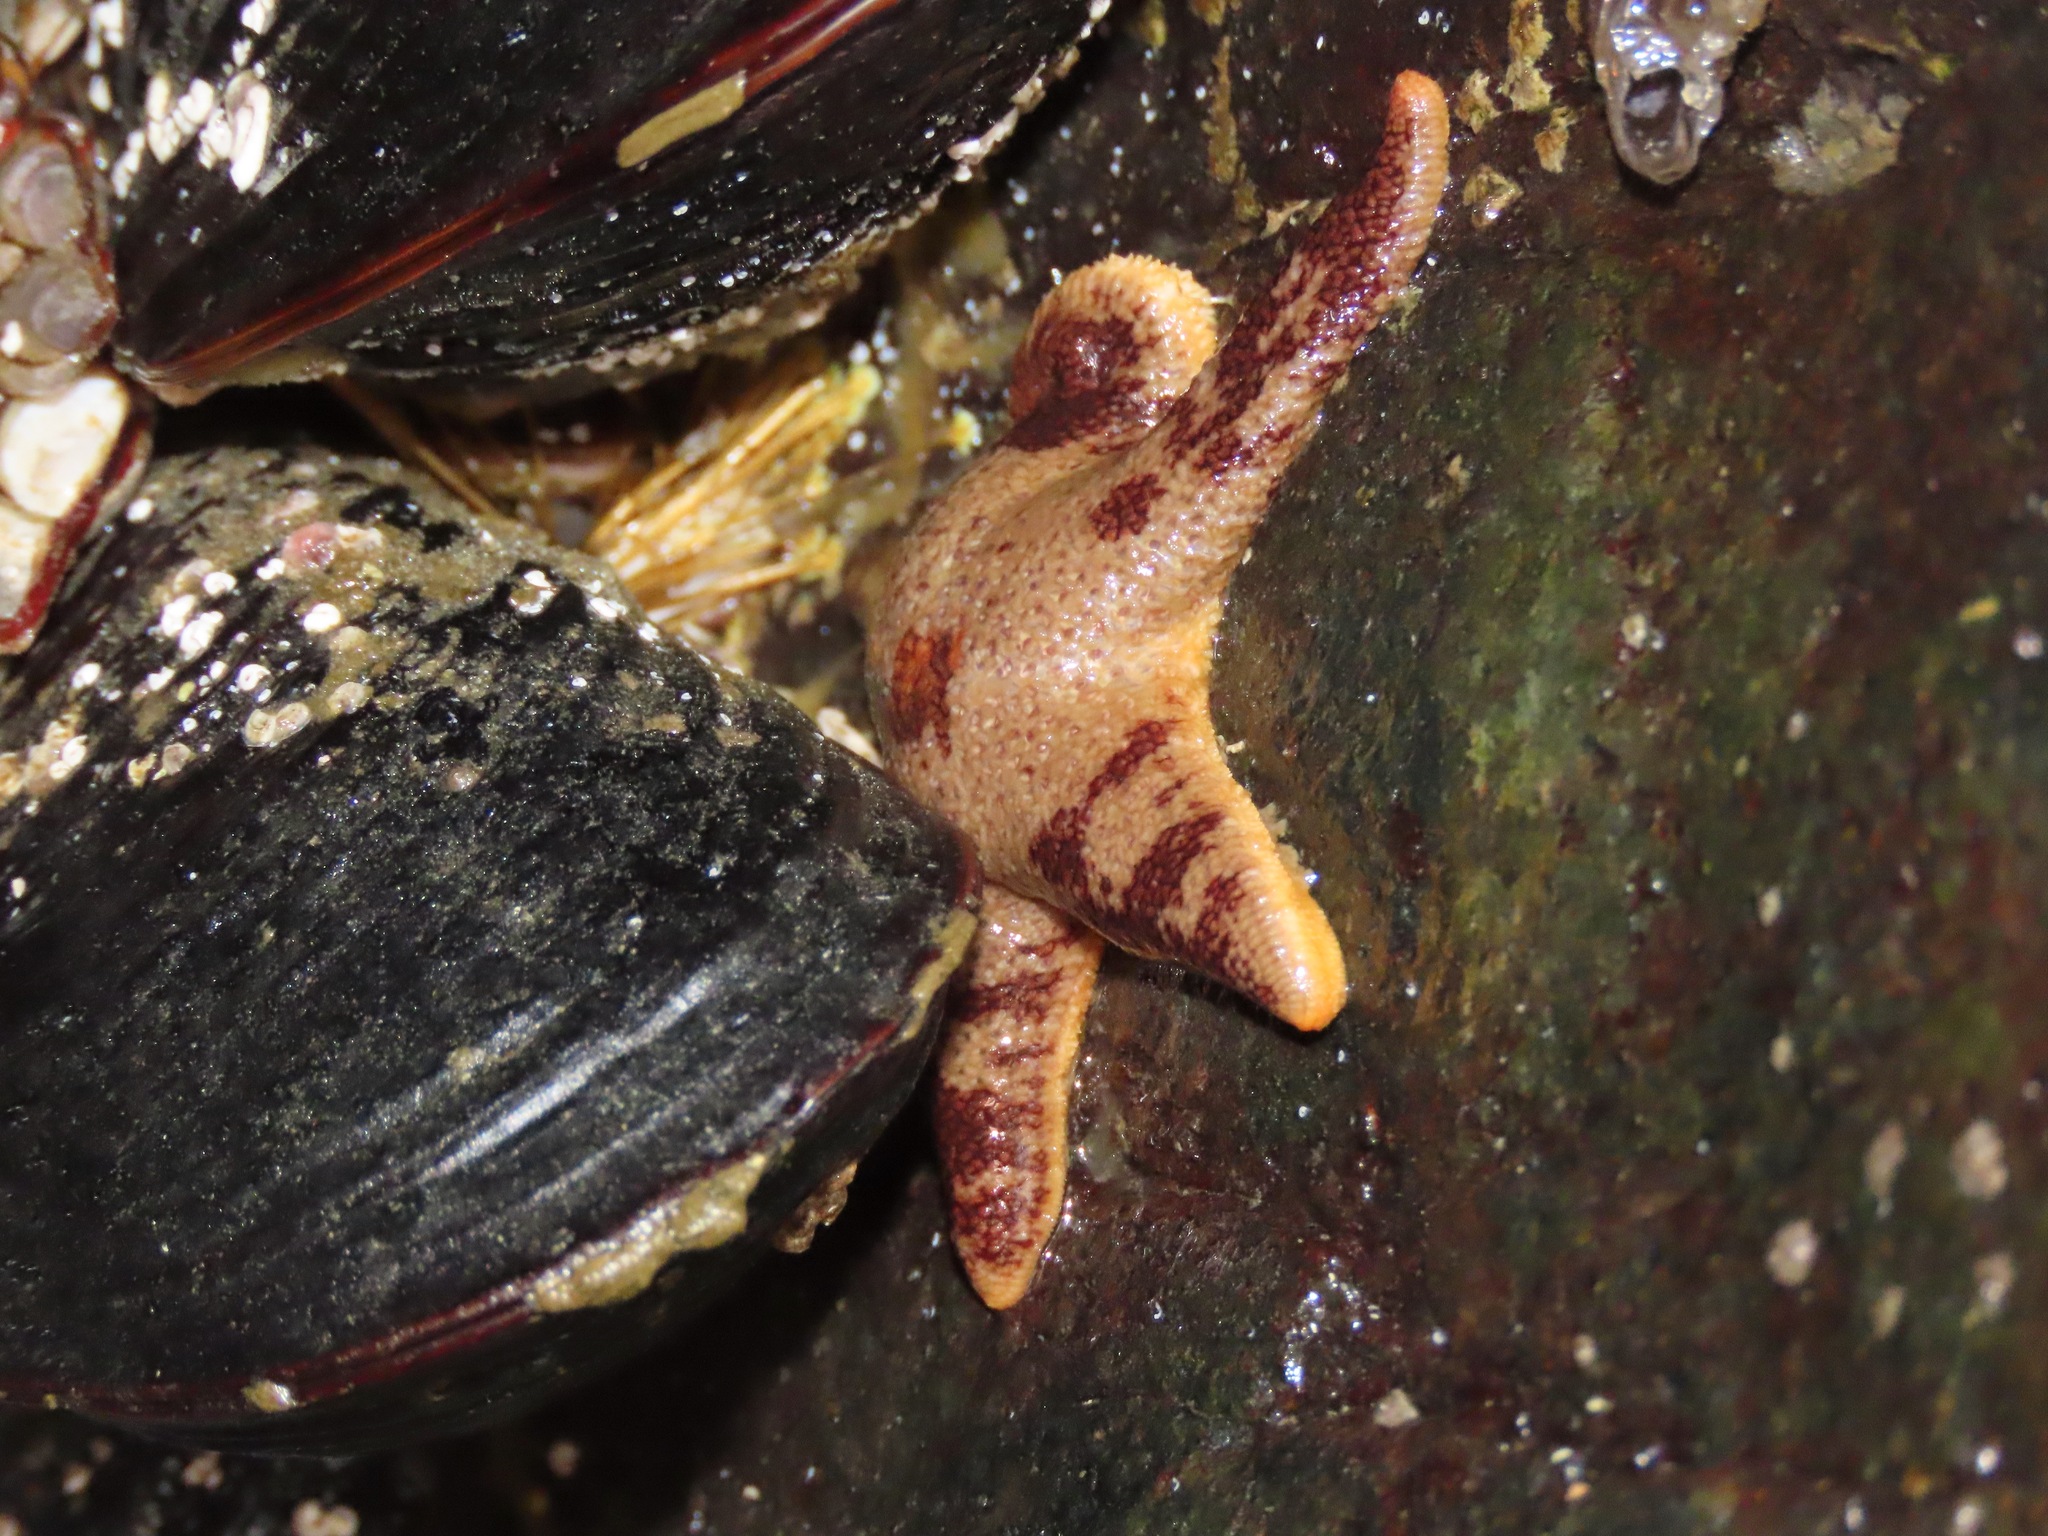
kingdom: Animalia
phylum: Echinodermata
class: Asteroidea
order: Spinulosida
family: Echinasteridae
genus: Henricia
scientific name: Henricia pumila
